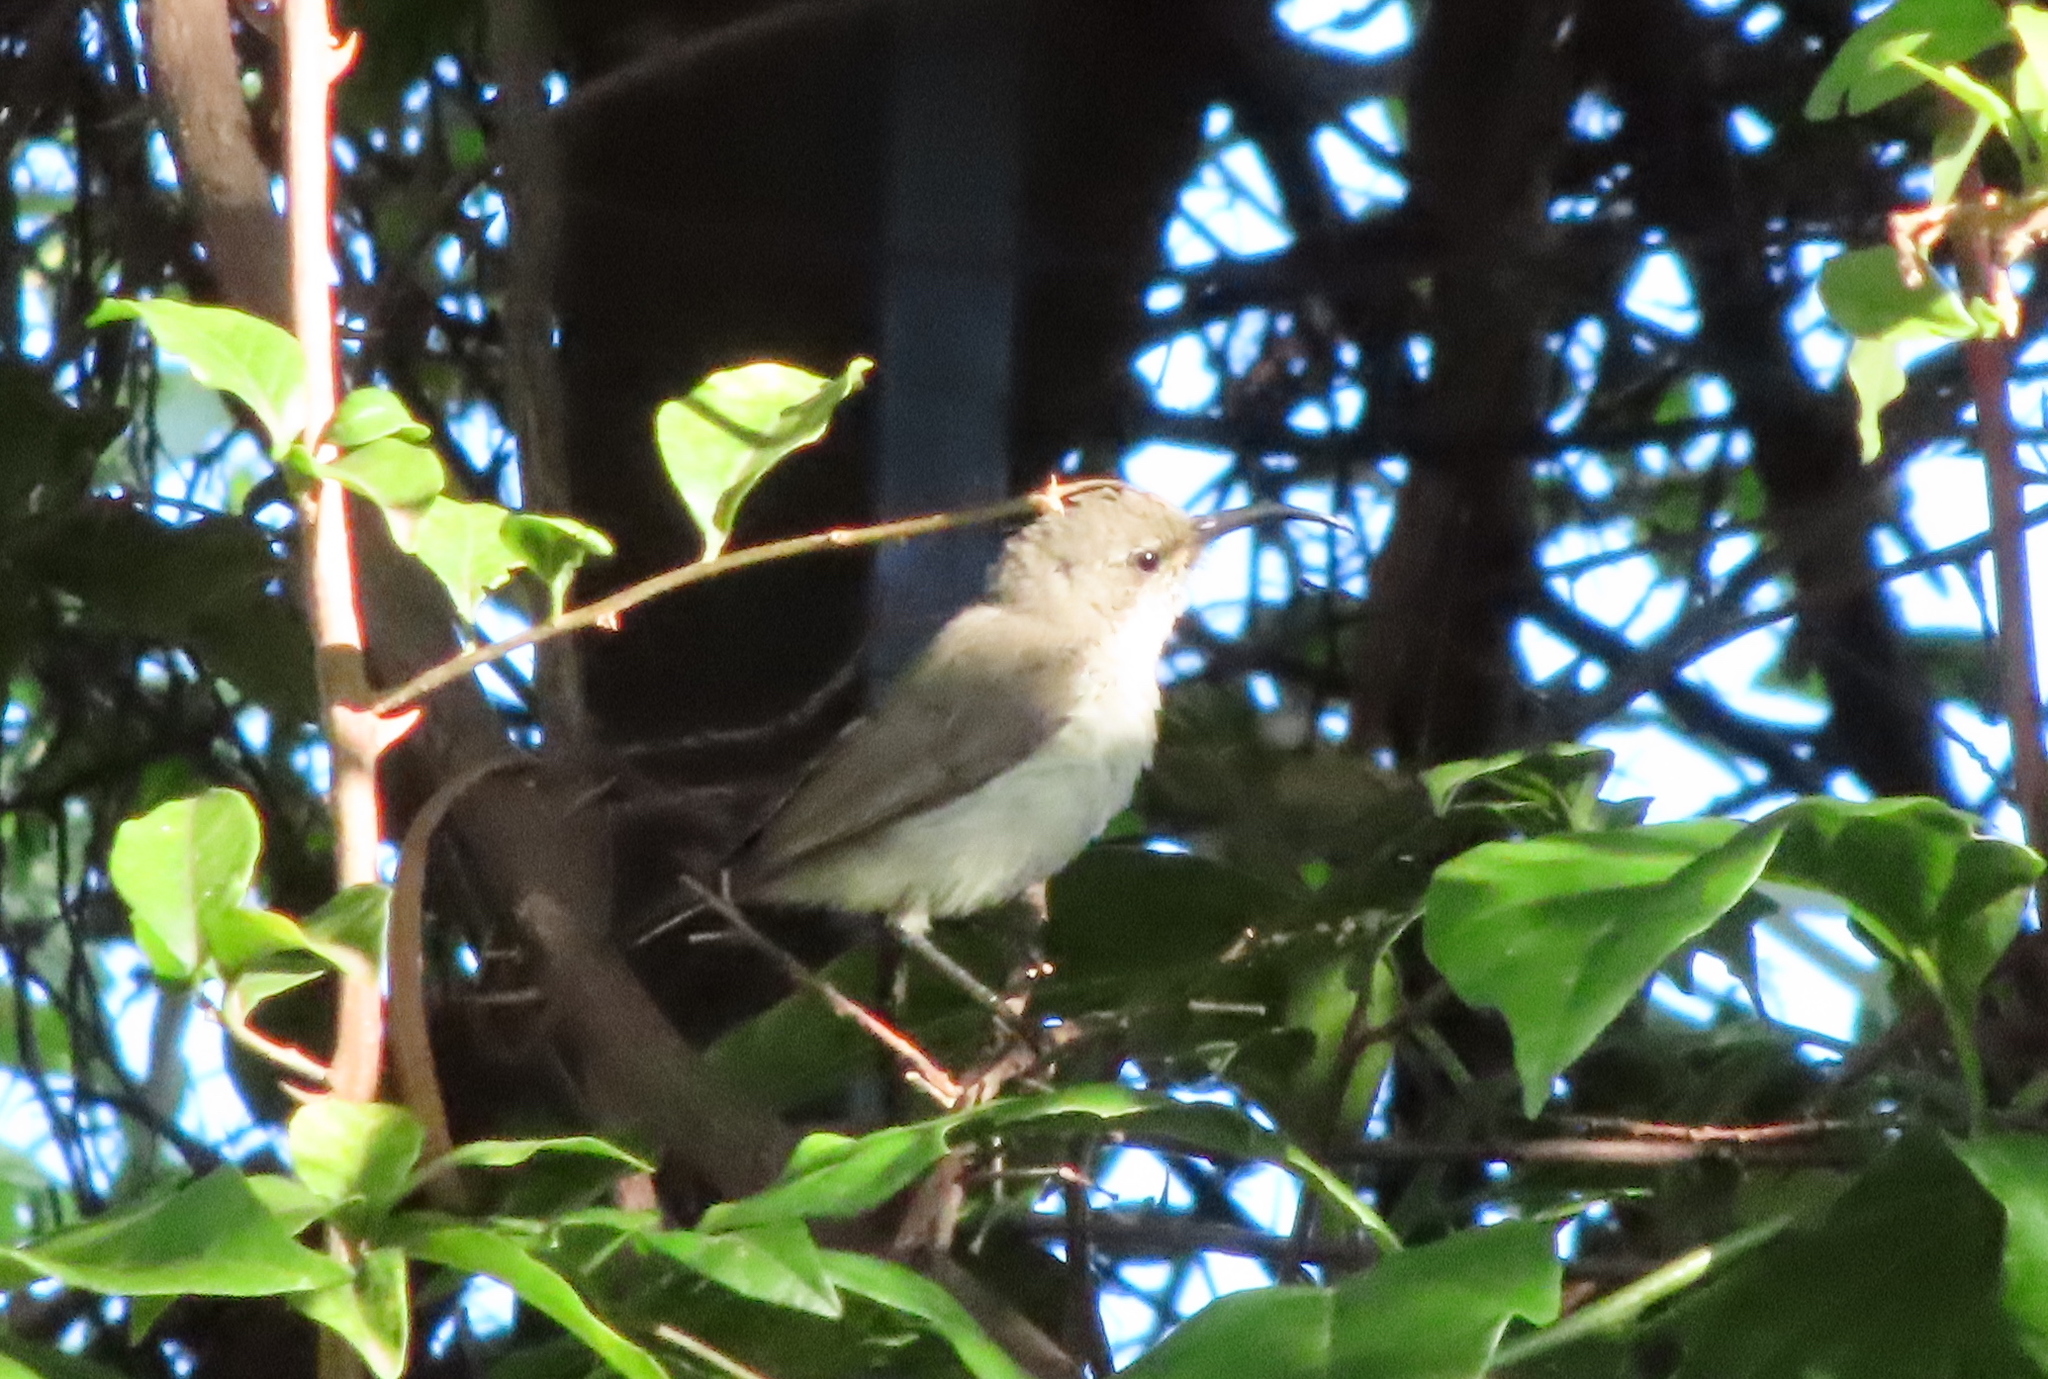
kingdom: Animalia
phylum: Chordata
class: Aves
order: Passeriformes
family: Nectariniidae
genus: Cinnyris
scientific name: Cinnyris talatala
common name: White-bellied sunbird
